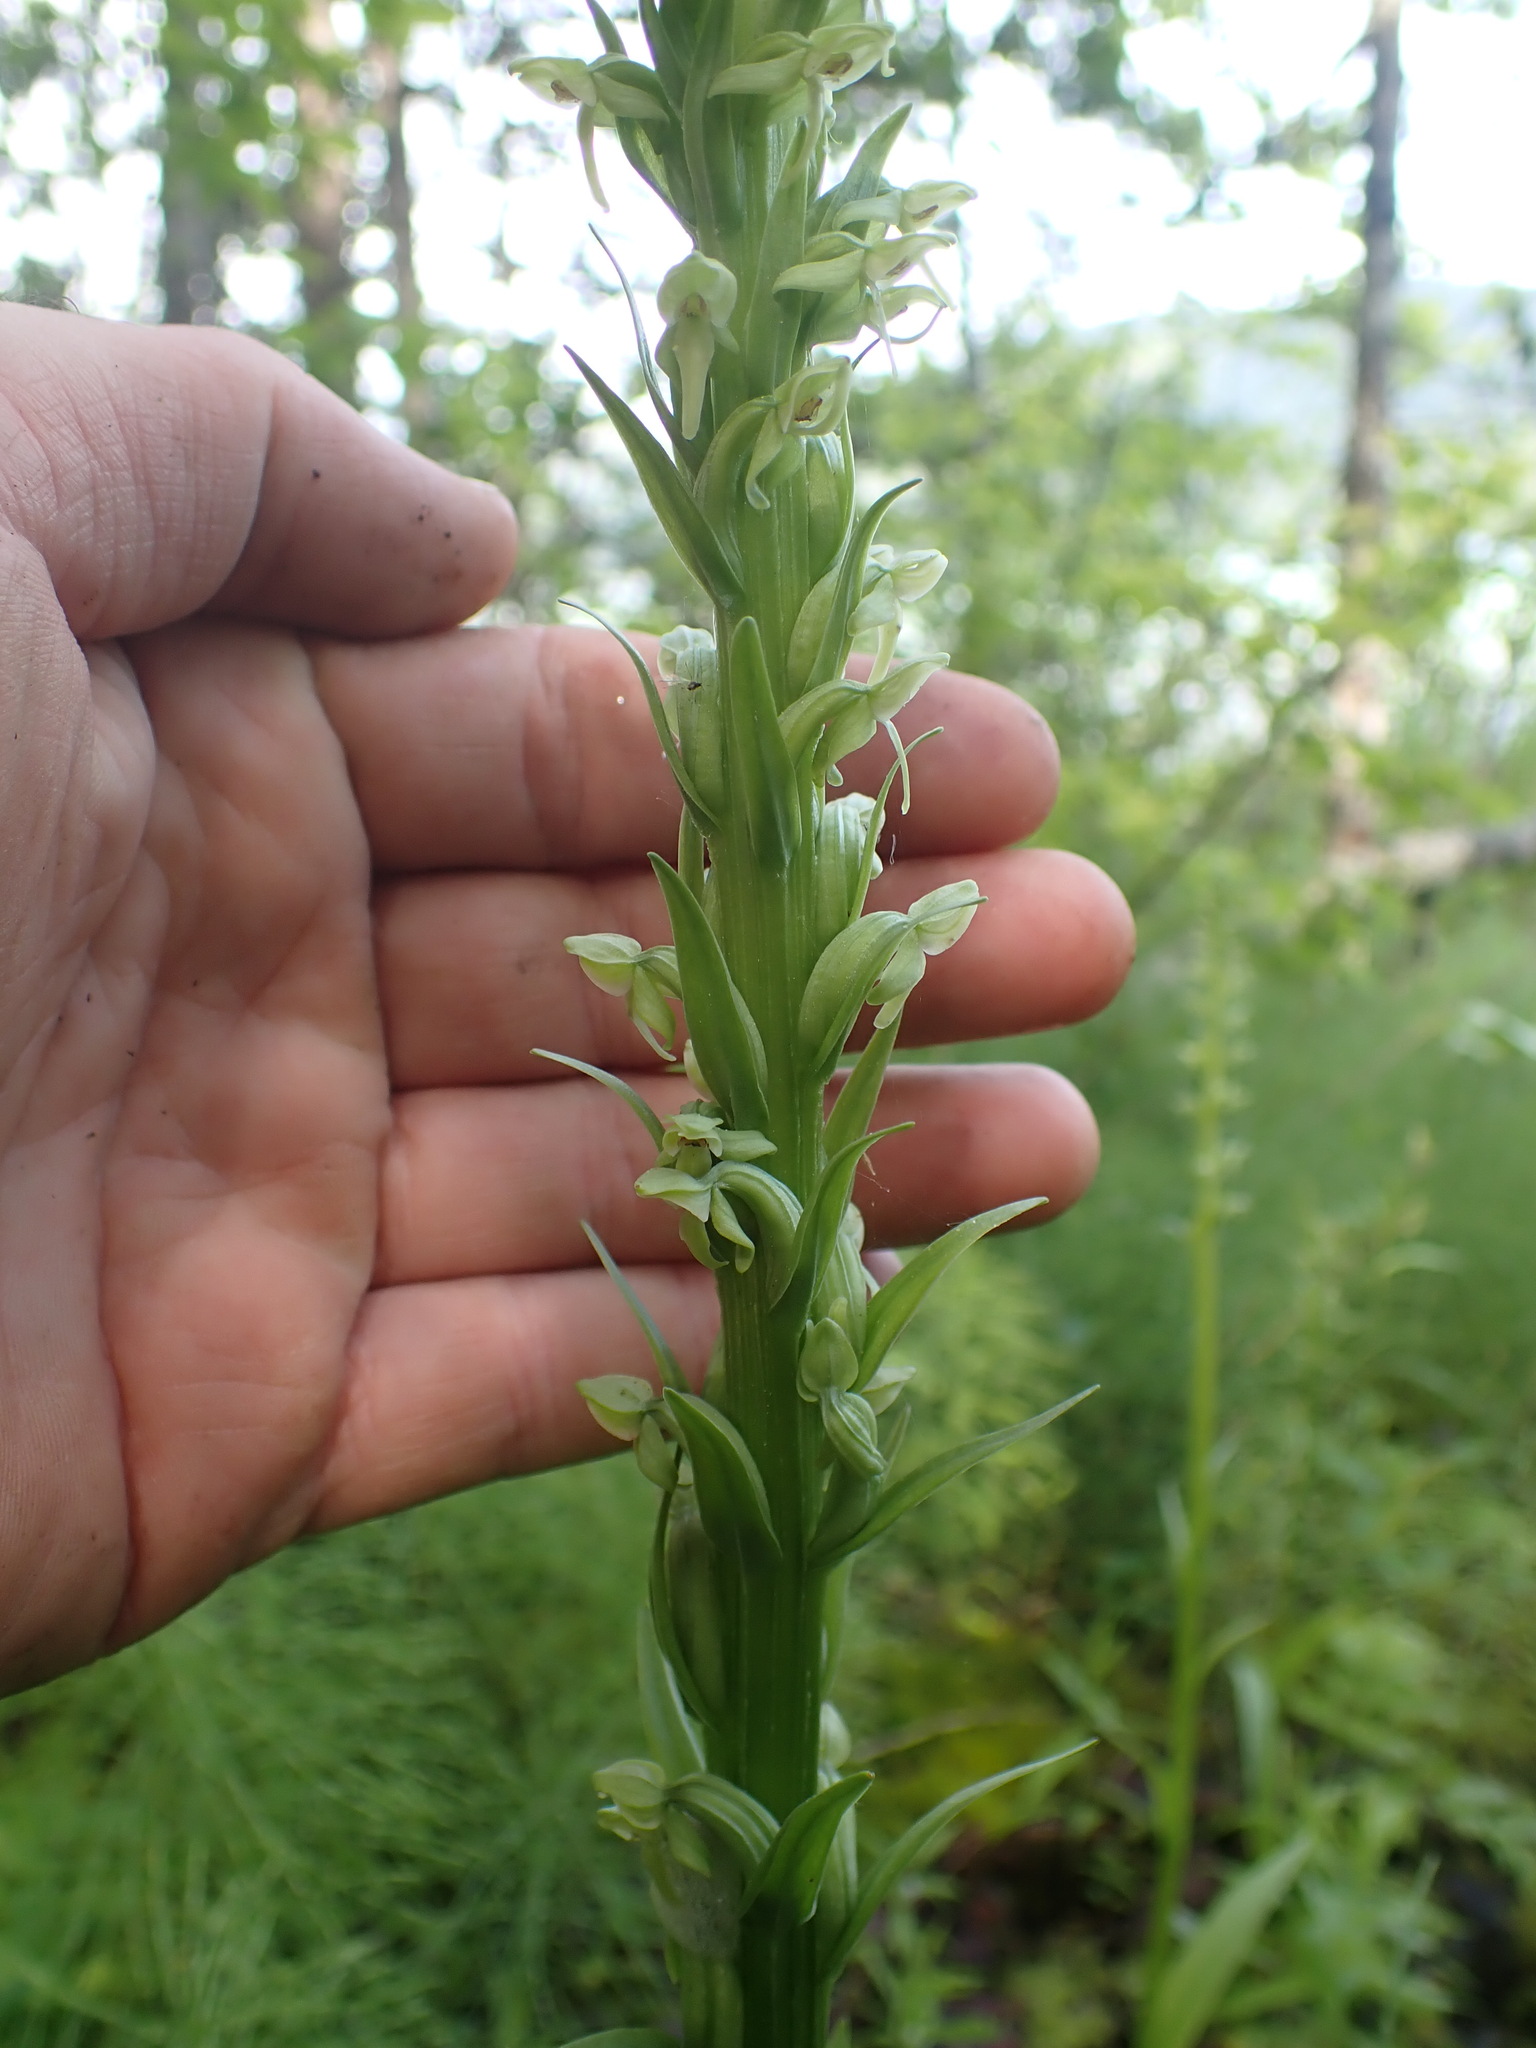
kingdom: Plantae
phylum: Tracheophyta
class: Liliopsida
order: Asparagales
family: Orchidaceae
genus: Platanthera
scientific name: Platanthera huronensis
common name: Fragrant green orchid
